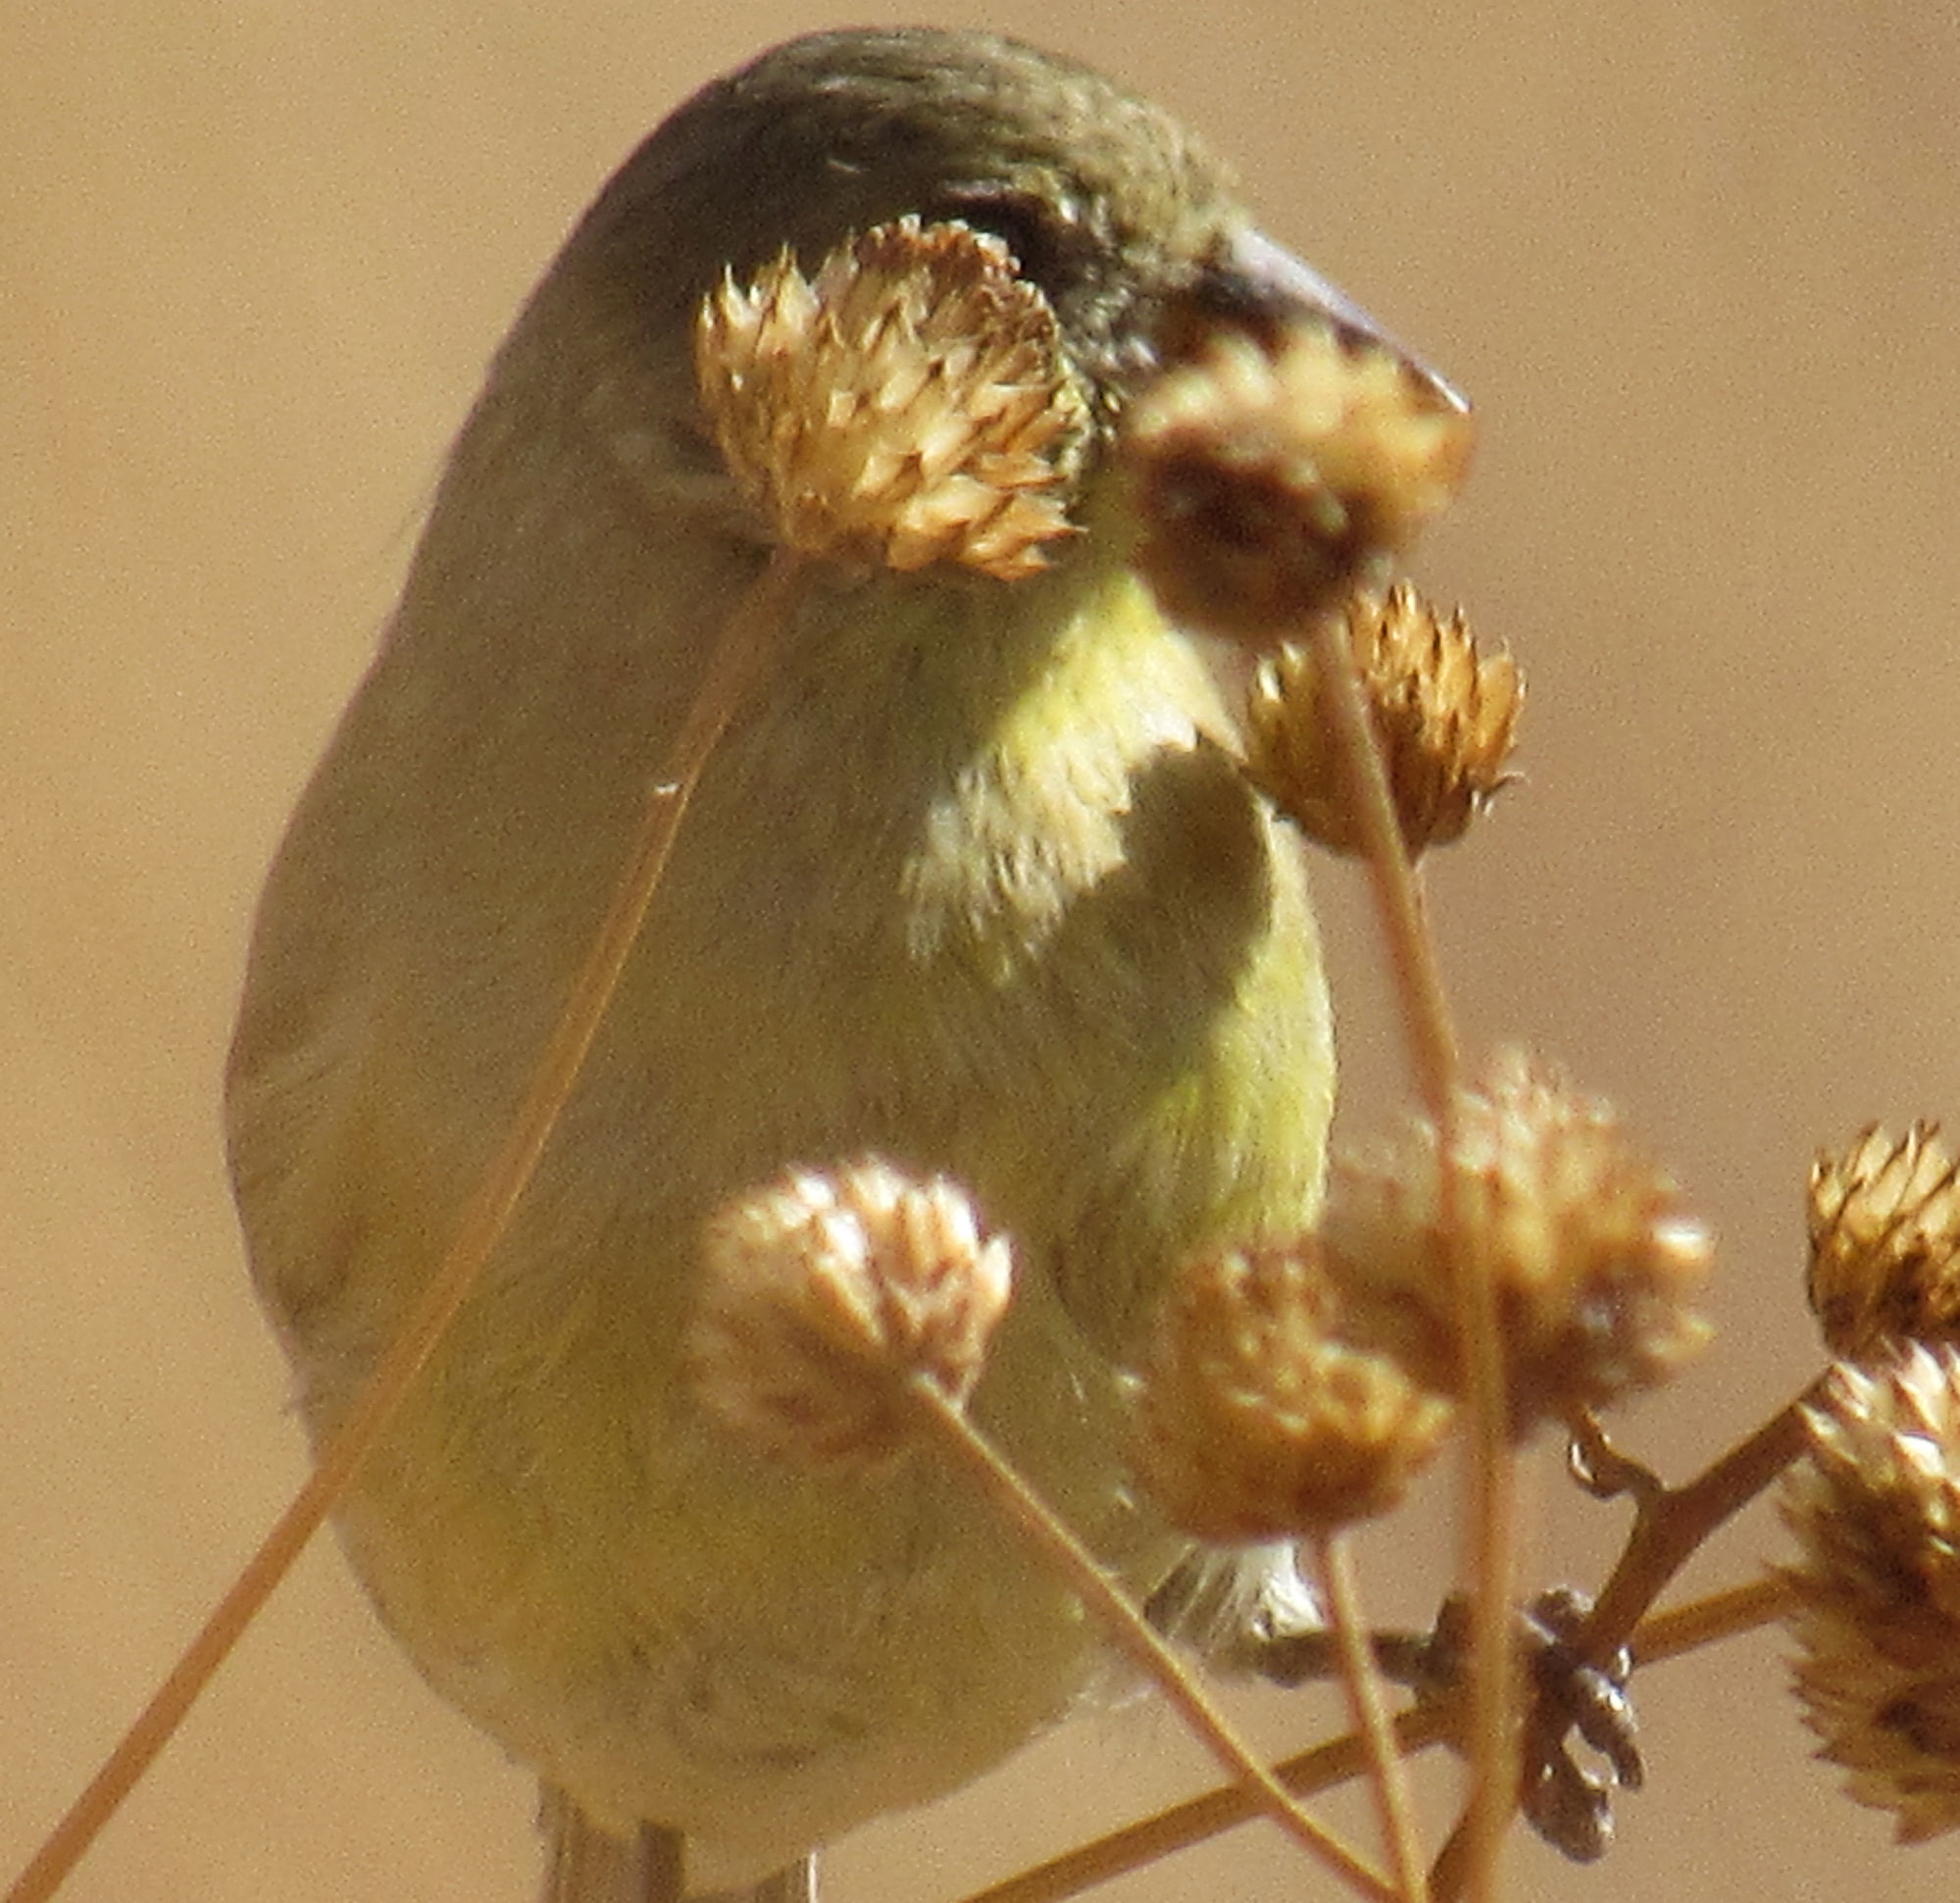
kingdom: Animalia
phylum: Chordata
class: Aves
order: Passeriformes
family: Fringillidae
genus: Spinus
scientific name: Spinus psaltria
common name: Lesser goldfinch
